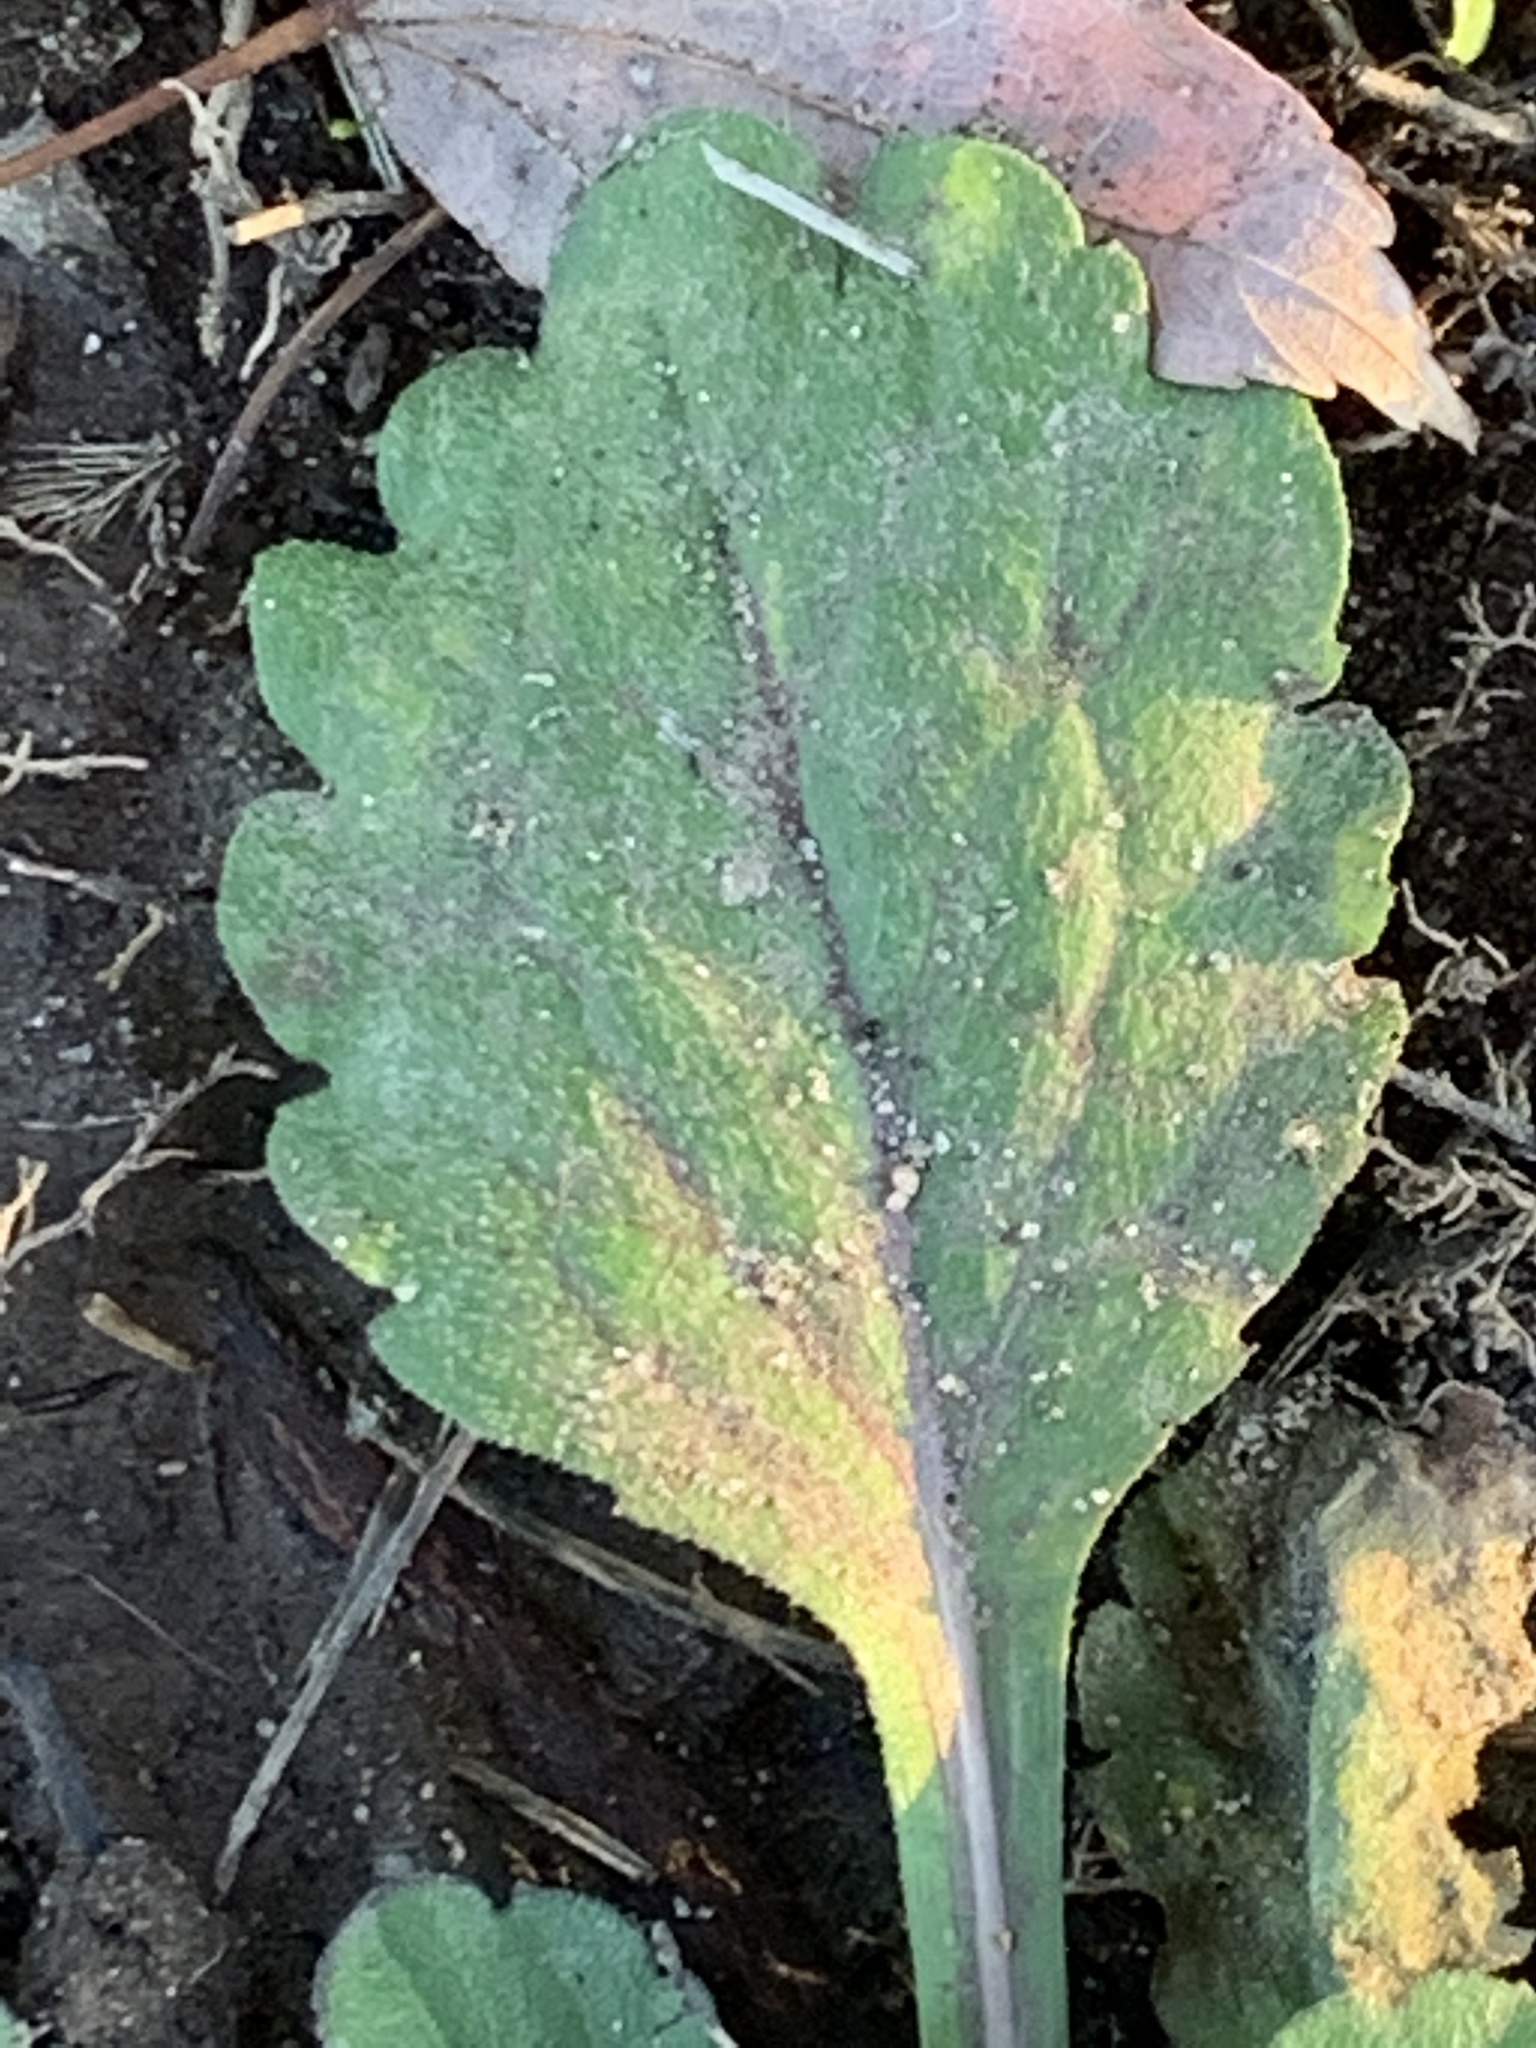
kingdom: Plantae
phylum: Tracheophyta
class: Magnoliopsida
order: Asterales
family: Asteraceae
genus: Erigeron
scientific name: Erigeron canadensis
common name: Canadian fleabane
